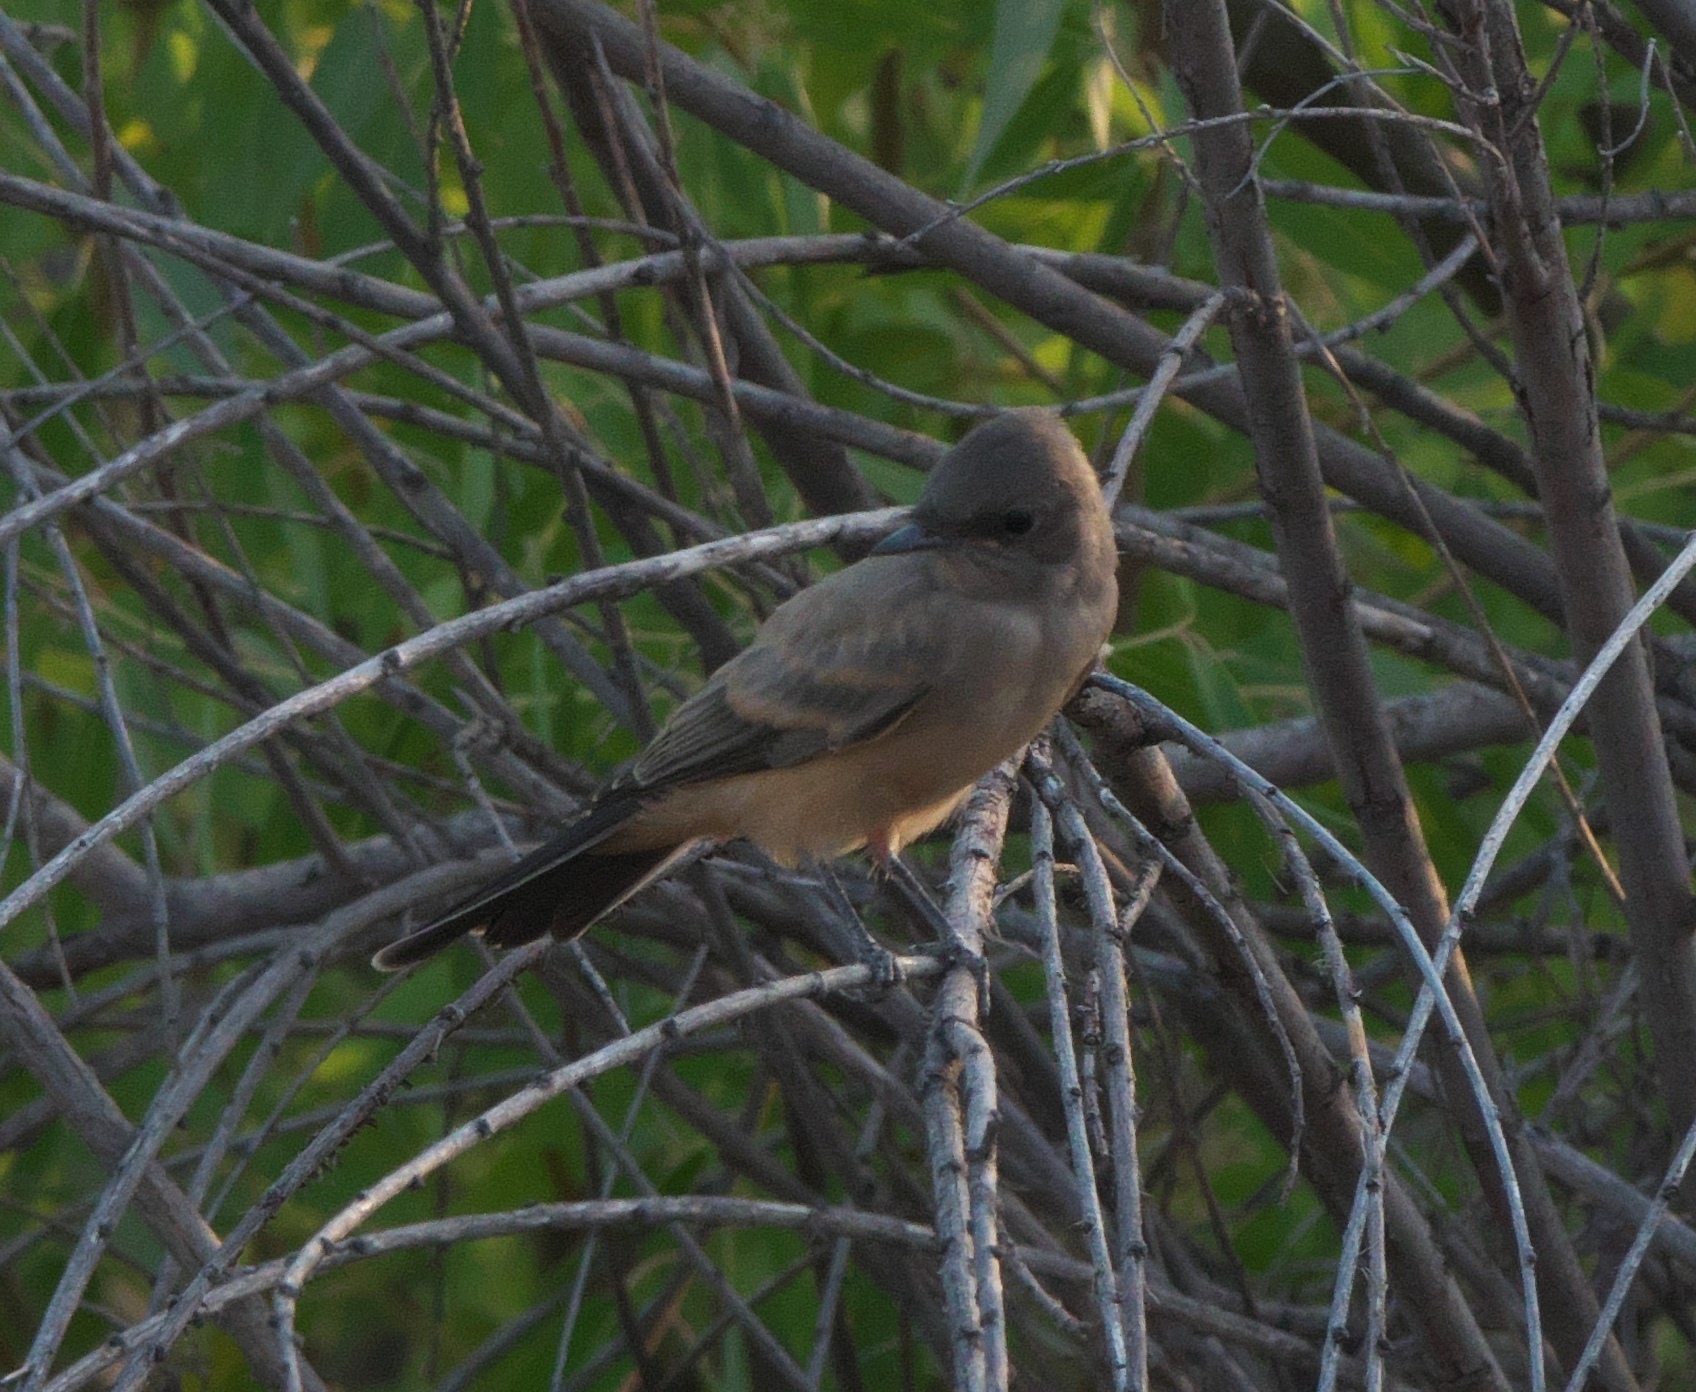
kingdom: Animalia
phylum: Chordata
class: Aves
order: Passeriformes
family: Tyrannidae
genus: Sayornis
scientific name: Sayornis saya
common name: Say's phoebe
